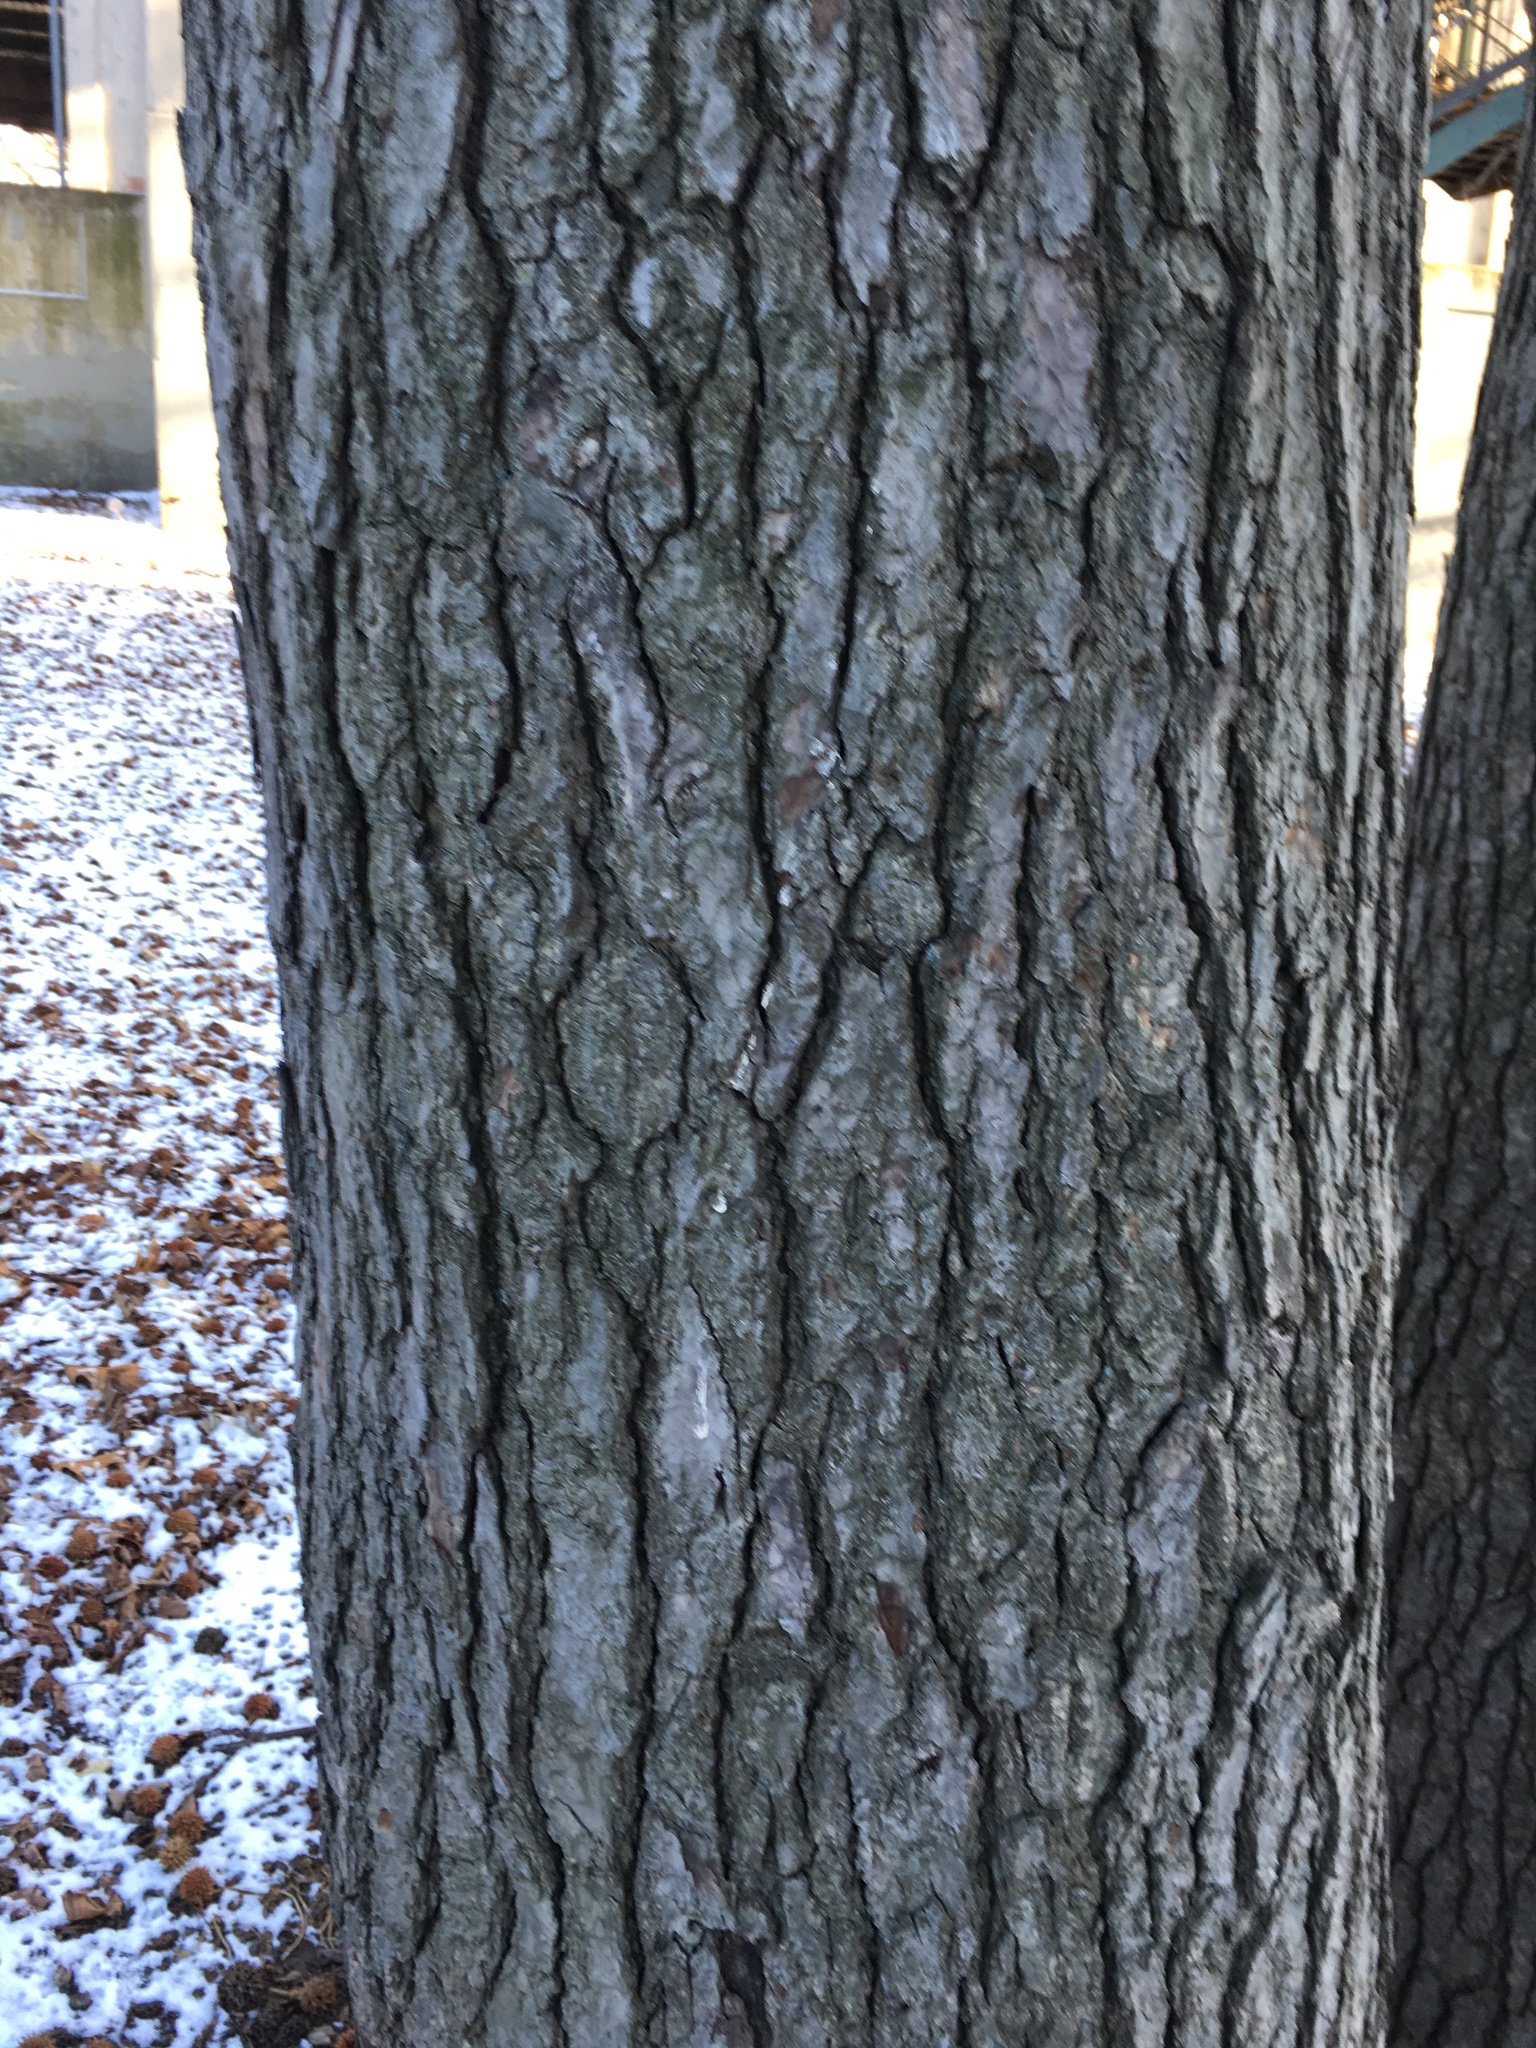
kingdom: Plantae
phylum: Tracheophyta
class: Magnoliopsida
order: Saxifragales
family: Altingiaceae
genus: Liquidambar
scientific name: Liquidambar styraciflua
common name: Sweet gum
